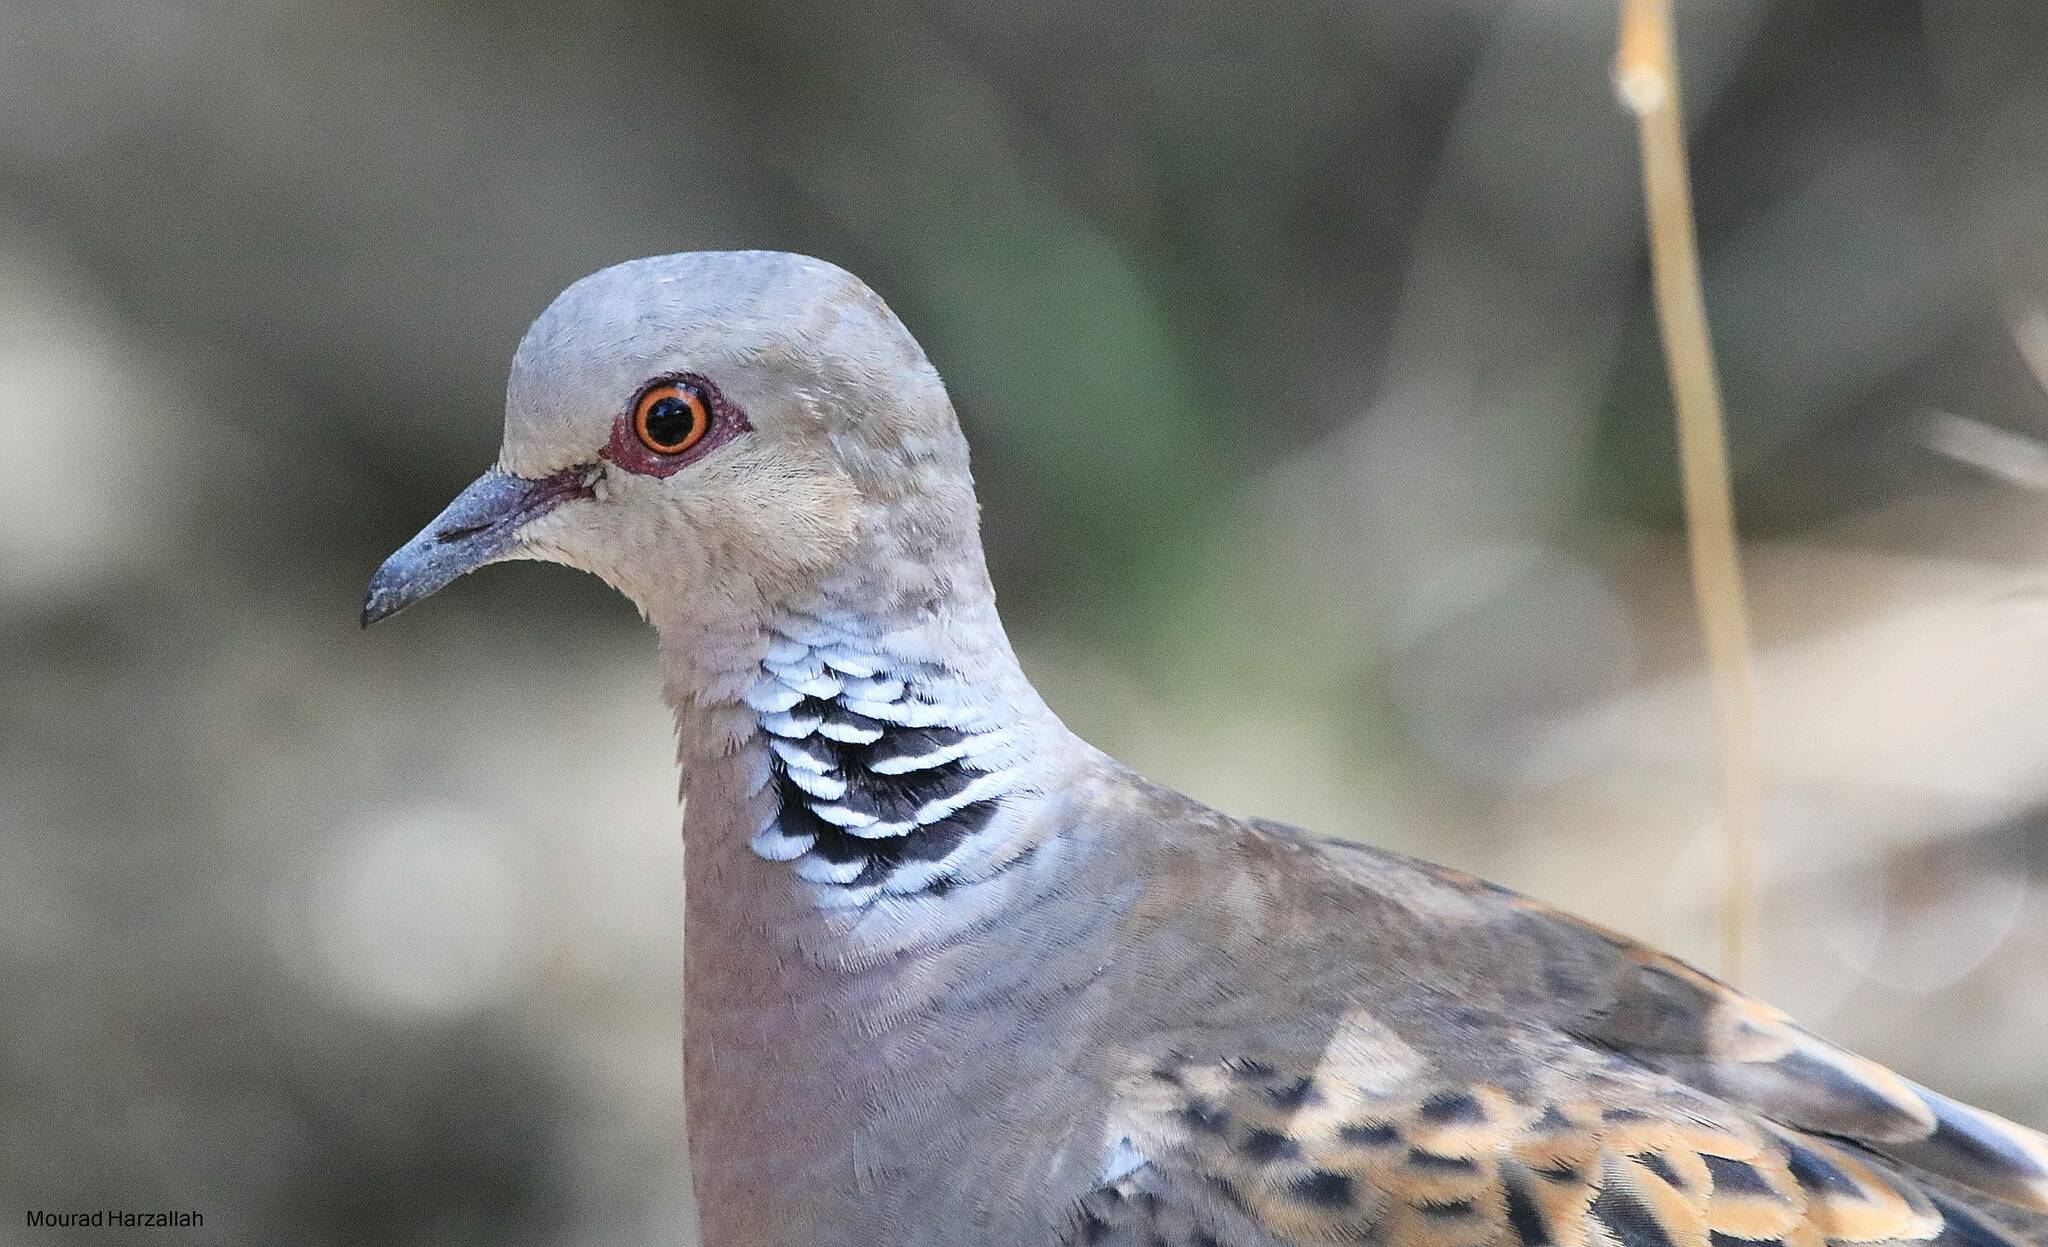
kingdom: Animalia
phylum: Chordata
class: Aves
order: Columbiformes
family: Columbidae
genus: Streptopelia
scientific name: Streptopelia turtur
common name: European turtle dove
